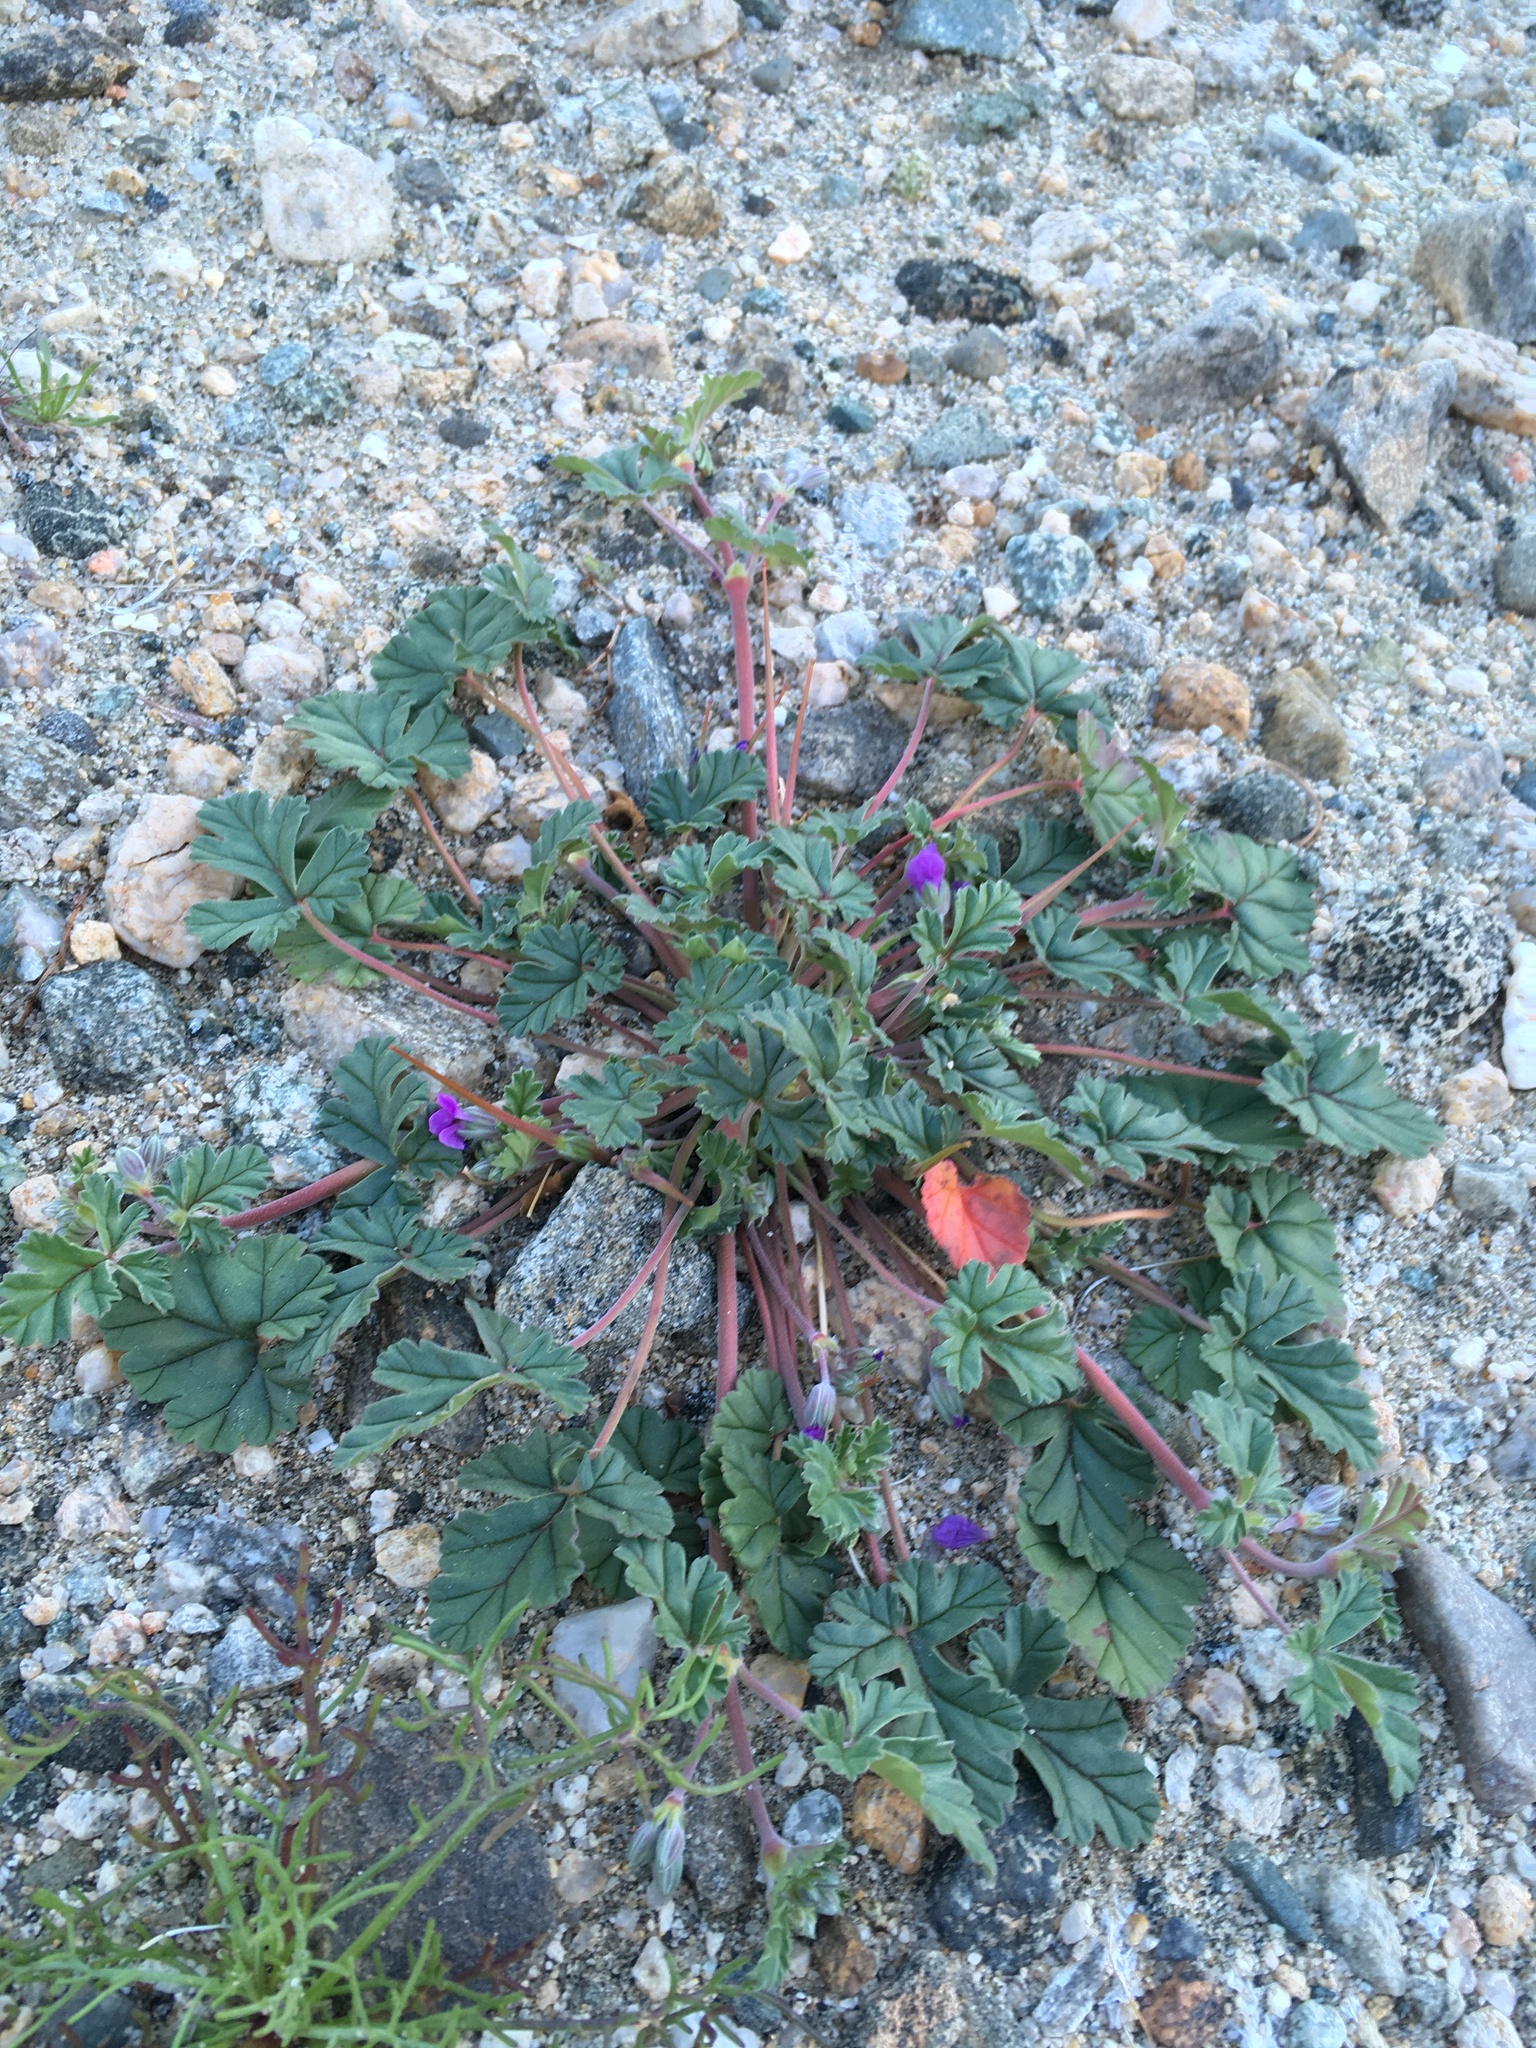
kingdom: Plantae
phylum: Tracheophyta
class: Magnoliopsida
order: Geraniales
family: Geraniaceae
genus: Erodium
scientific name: Erodium texanum
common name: Texas stork's-bill
